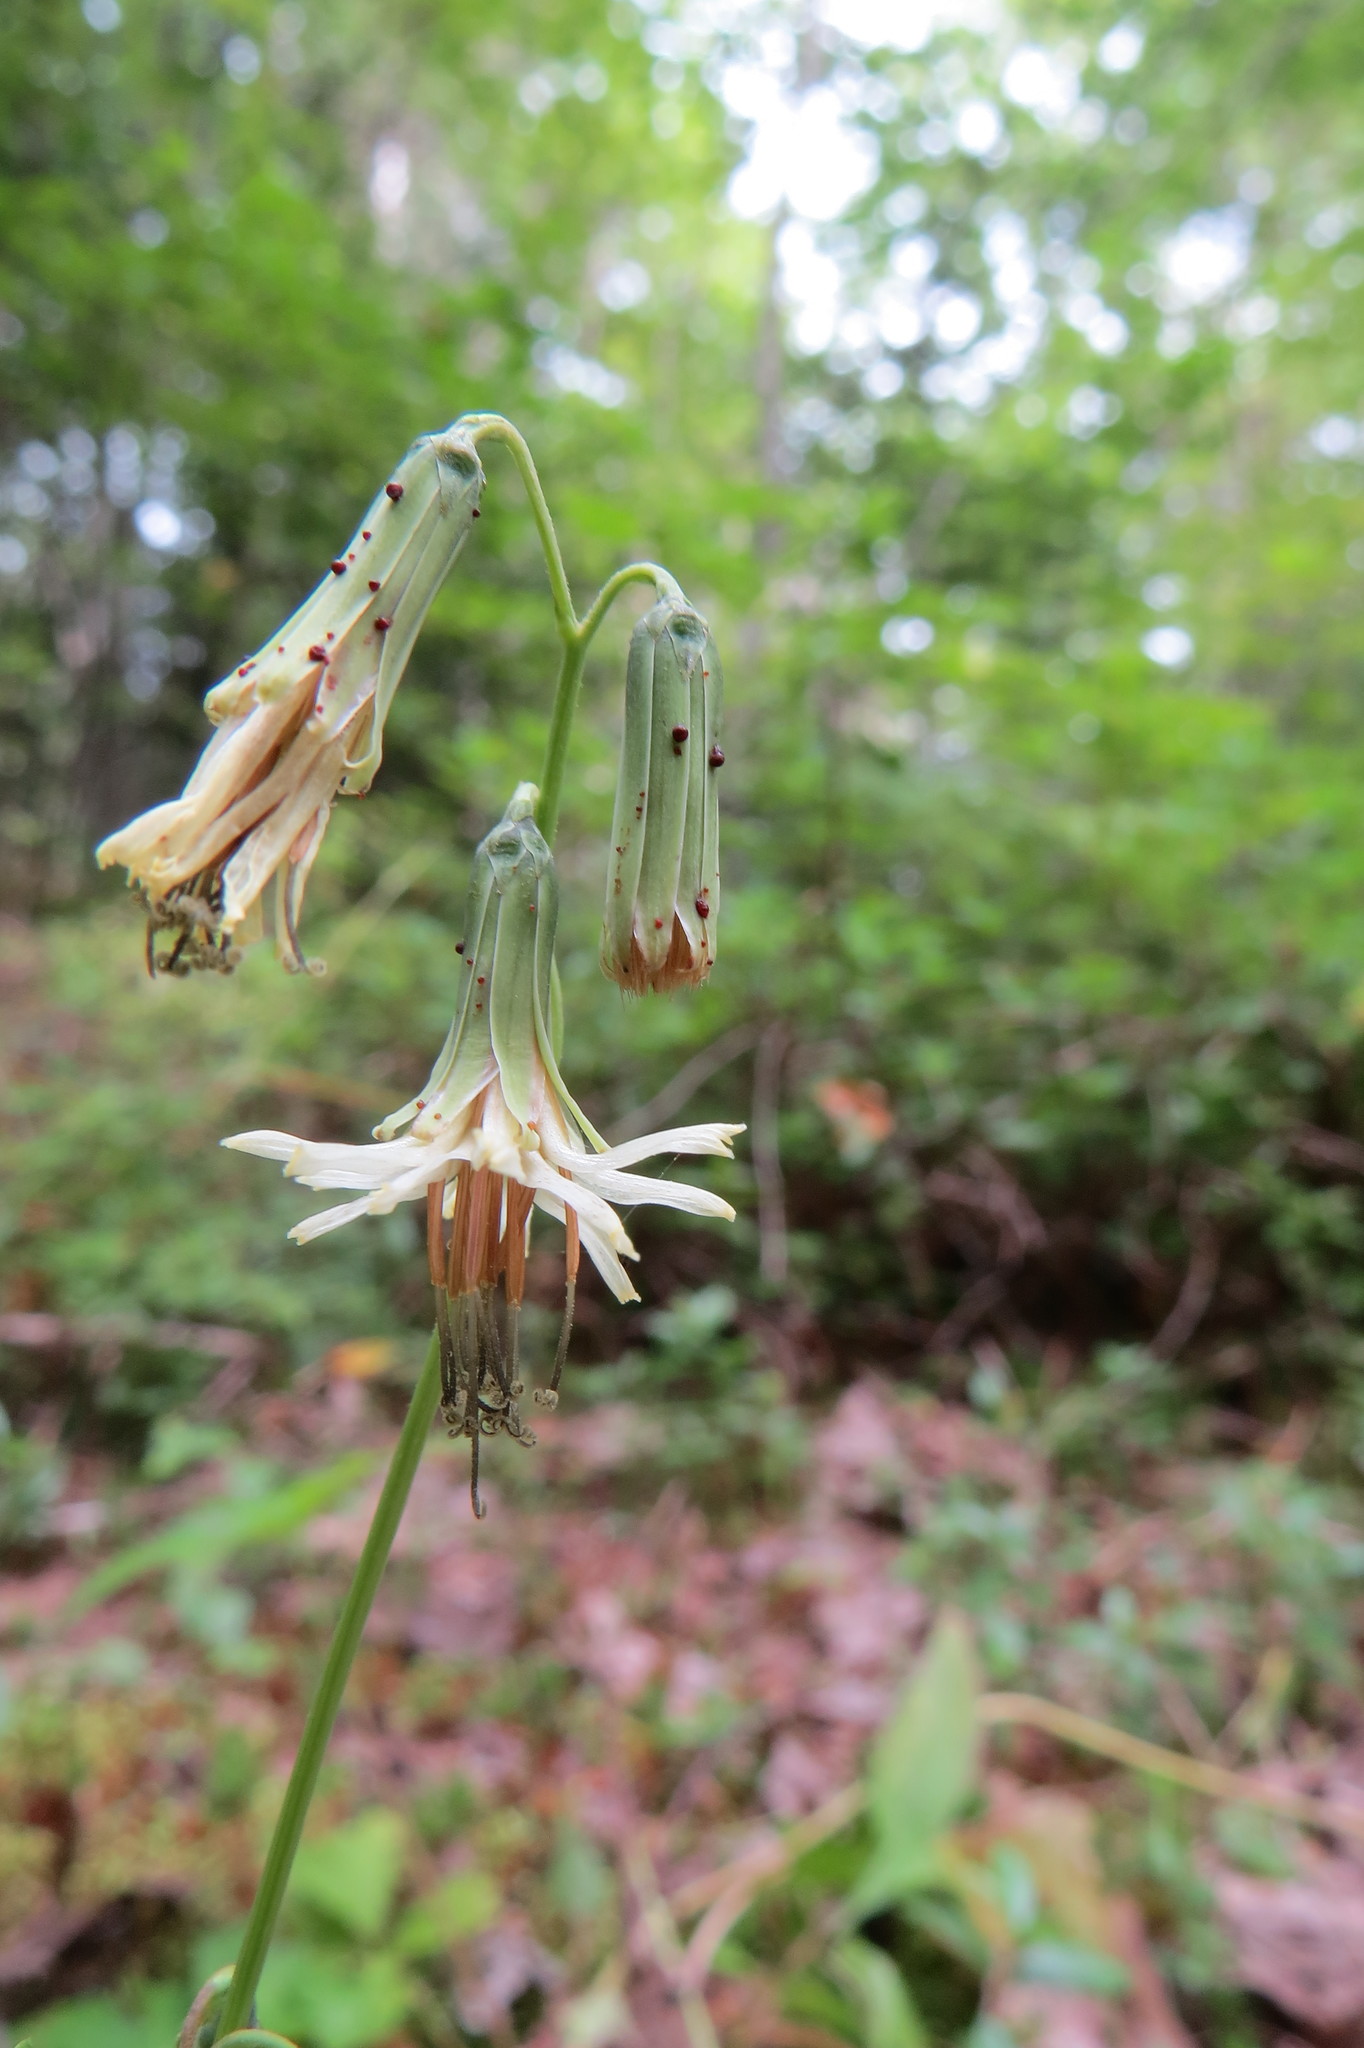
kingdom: Plantae
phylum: Tracheophyta
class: Magnoliopsida
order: Asterales
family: Asteraceae
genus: Nabalus
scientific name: Nabalus trifoliolatus
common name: Gall-of-the-earth
